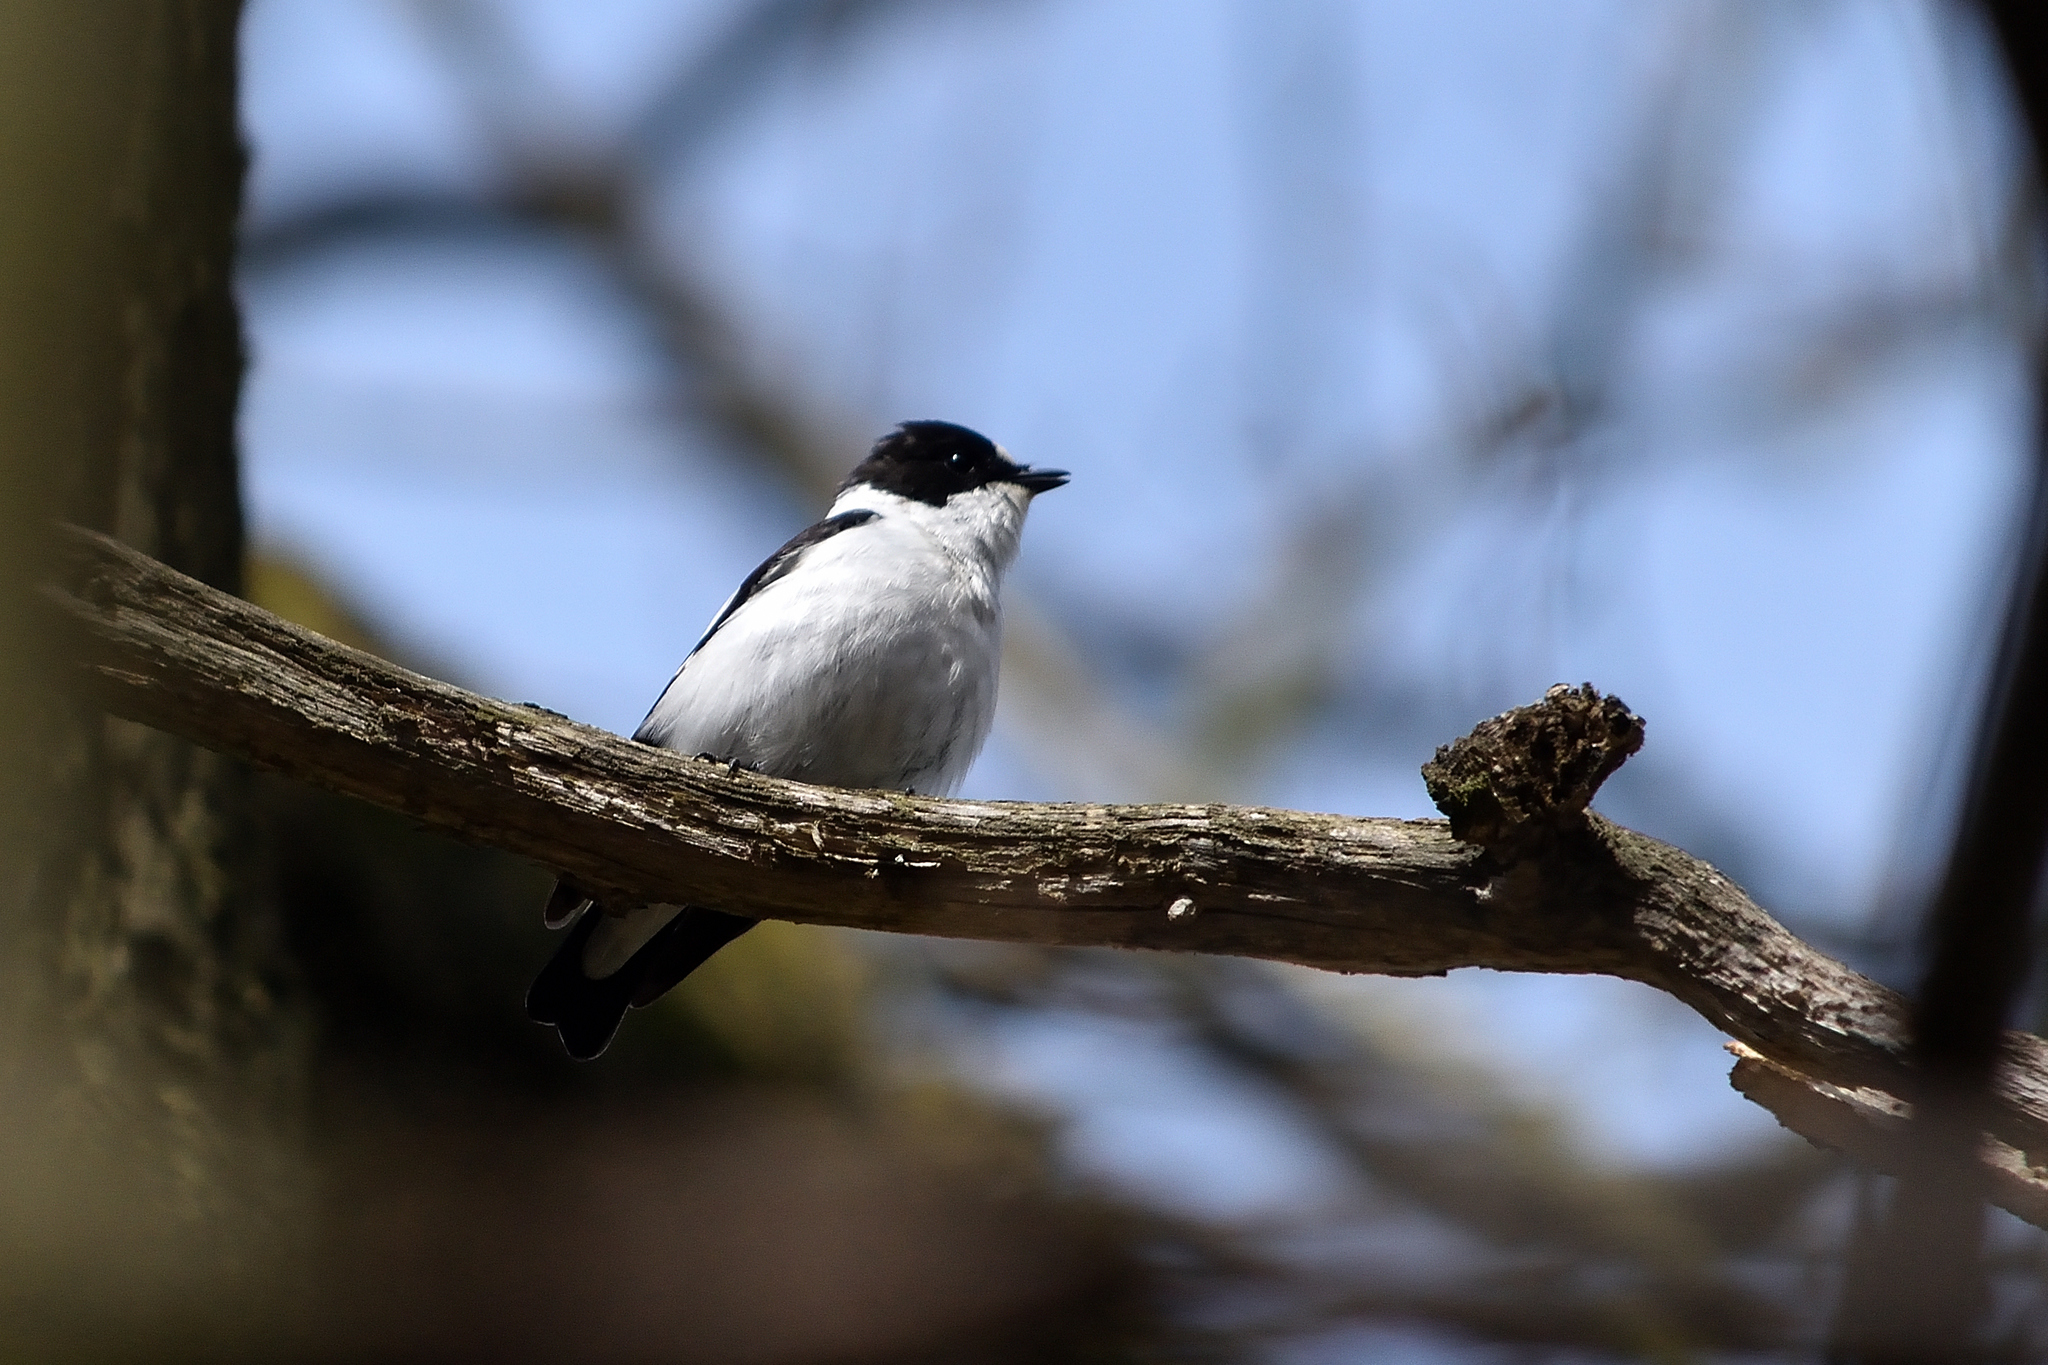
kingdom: Animalia
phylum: Chordata
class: Aves
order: Passeriformes
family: Muscicapidae
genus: Ficedula
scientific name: Ficedula albicollis
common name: Collared flycatcher
